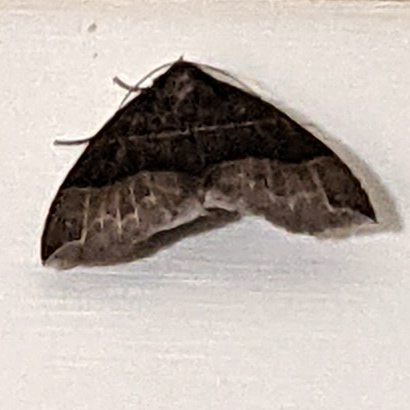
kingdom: Animalia
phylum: Arthropoda
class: Insecta
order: Lepidoptera
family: Erebidae
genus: Parallelia
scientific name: Parallelia bistriaris
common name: Maple looper moth
